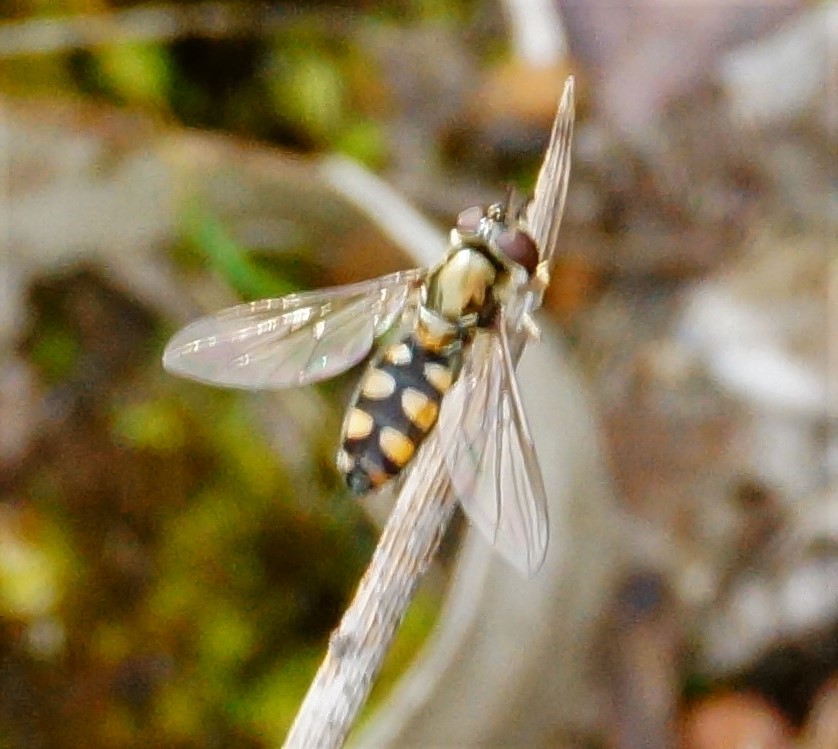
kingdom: Animalia
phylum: Arthropoda
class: Insecta
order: Diptera
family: Syrphidae
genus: Melangyna
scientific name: Melangyna viridiceps
